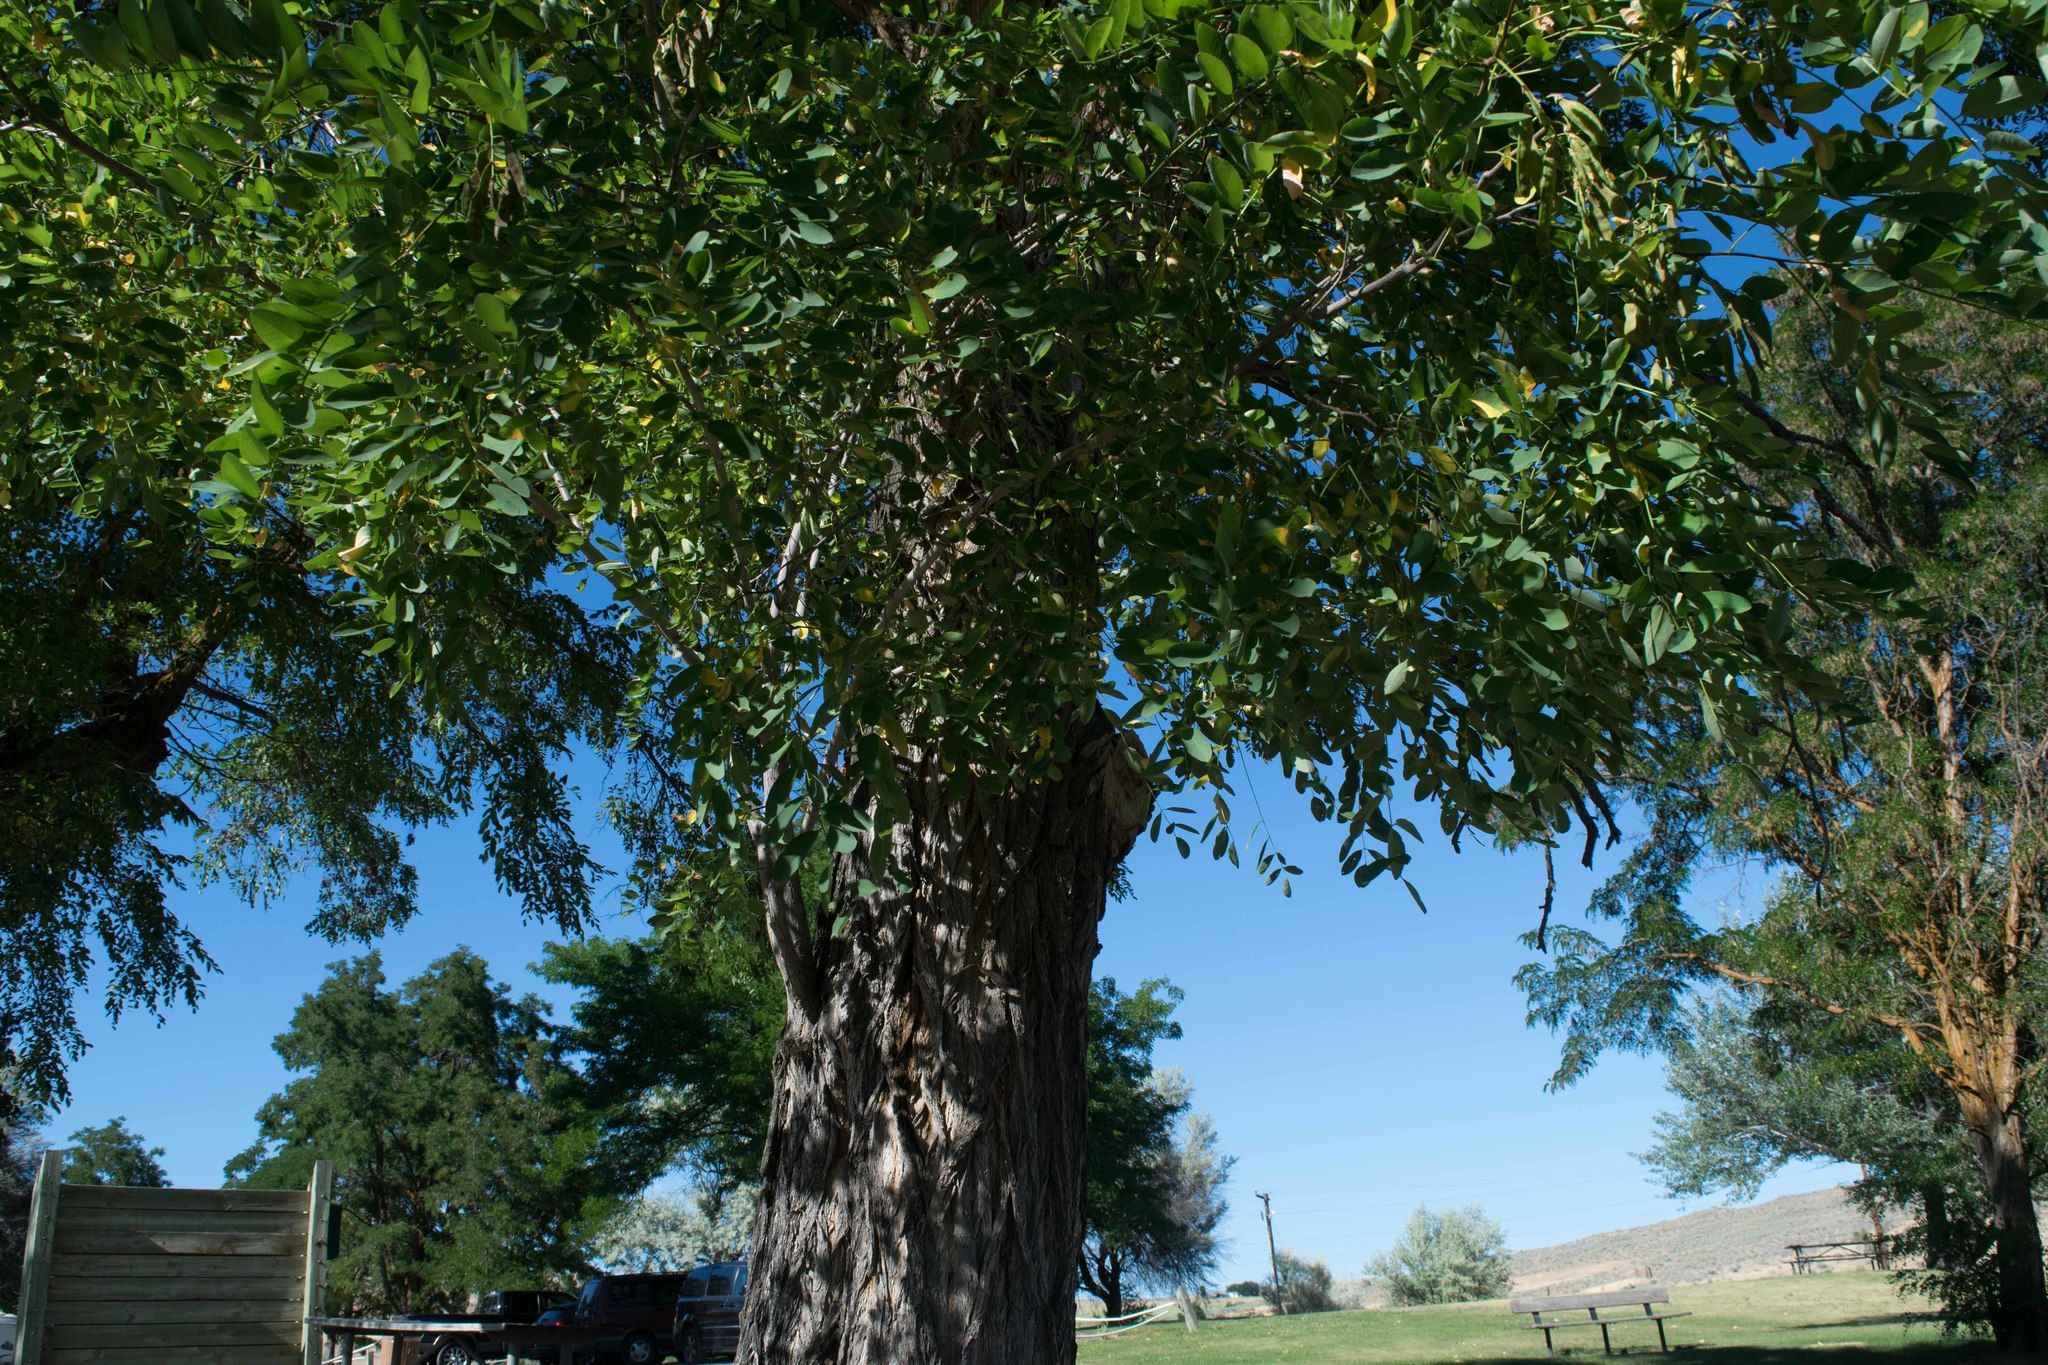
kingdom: Plantae
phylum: Tracheophyta
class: Magnoliopsida
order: Fabales
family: Fabaceae
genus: Robinia
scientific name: Robinia pseudoacacia
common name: Black locust
